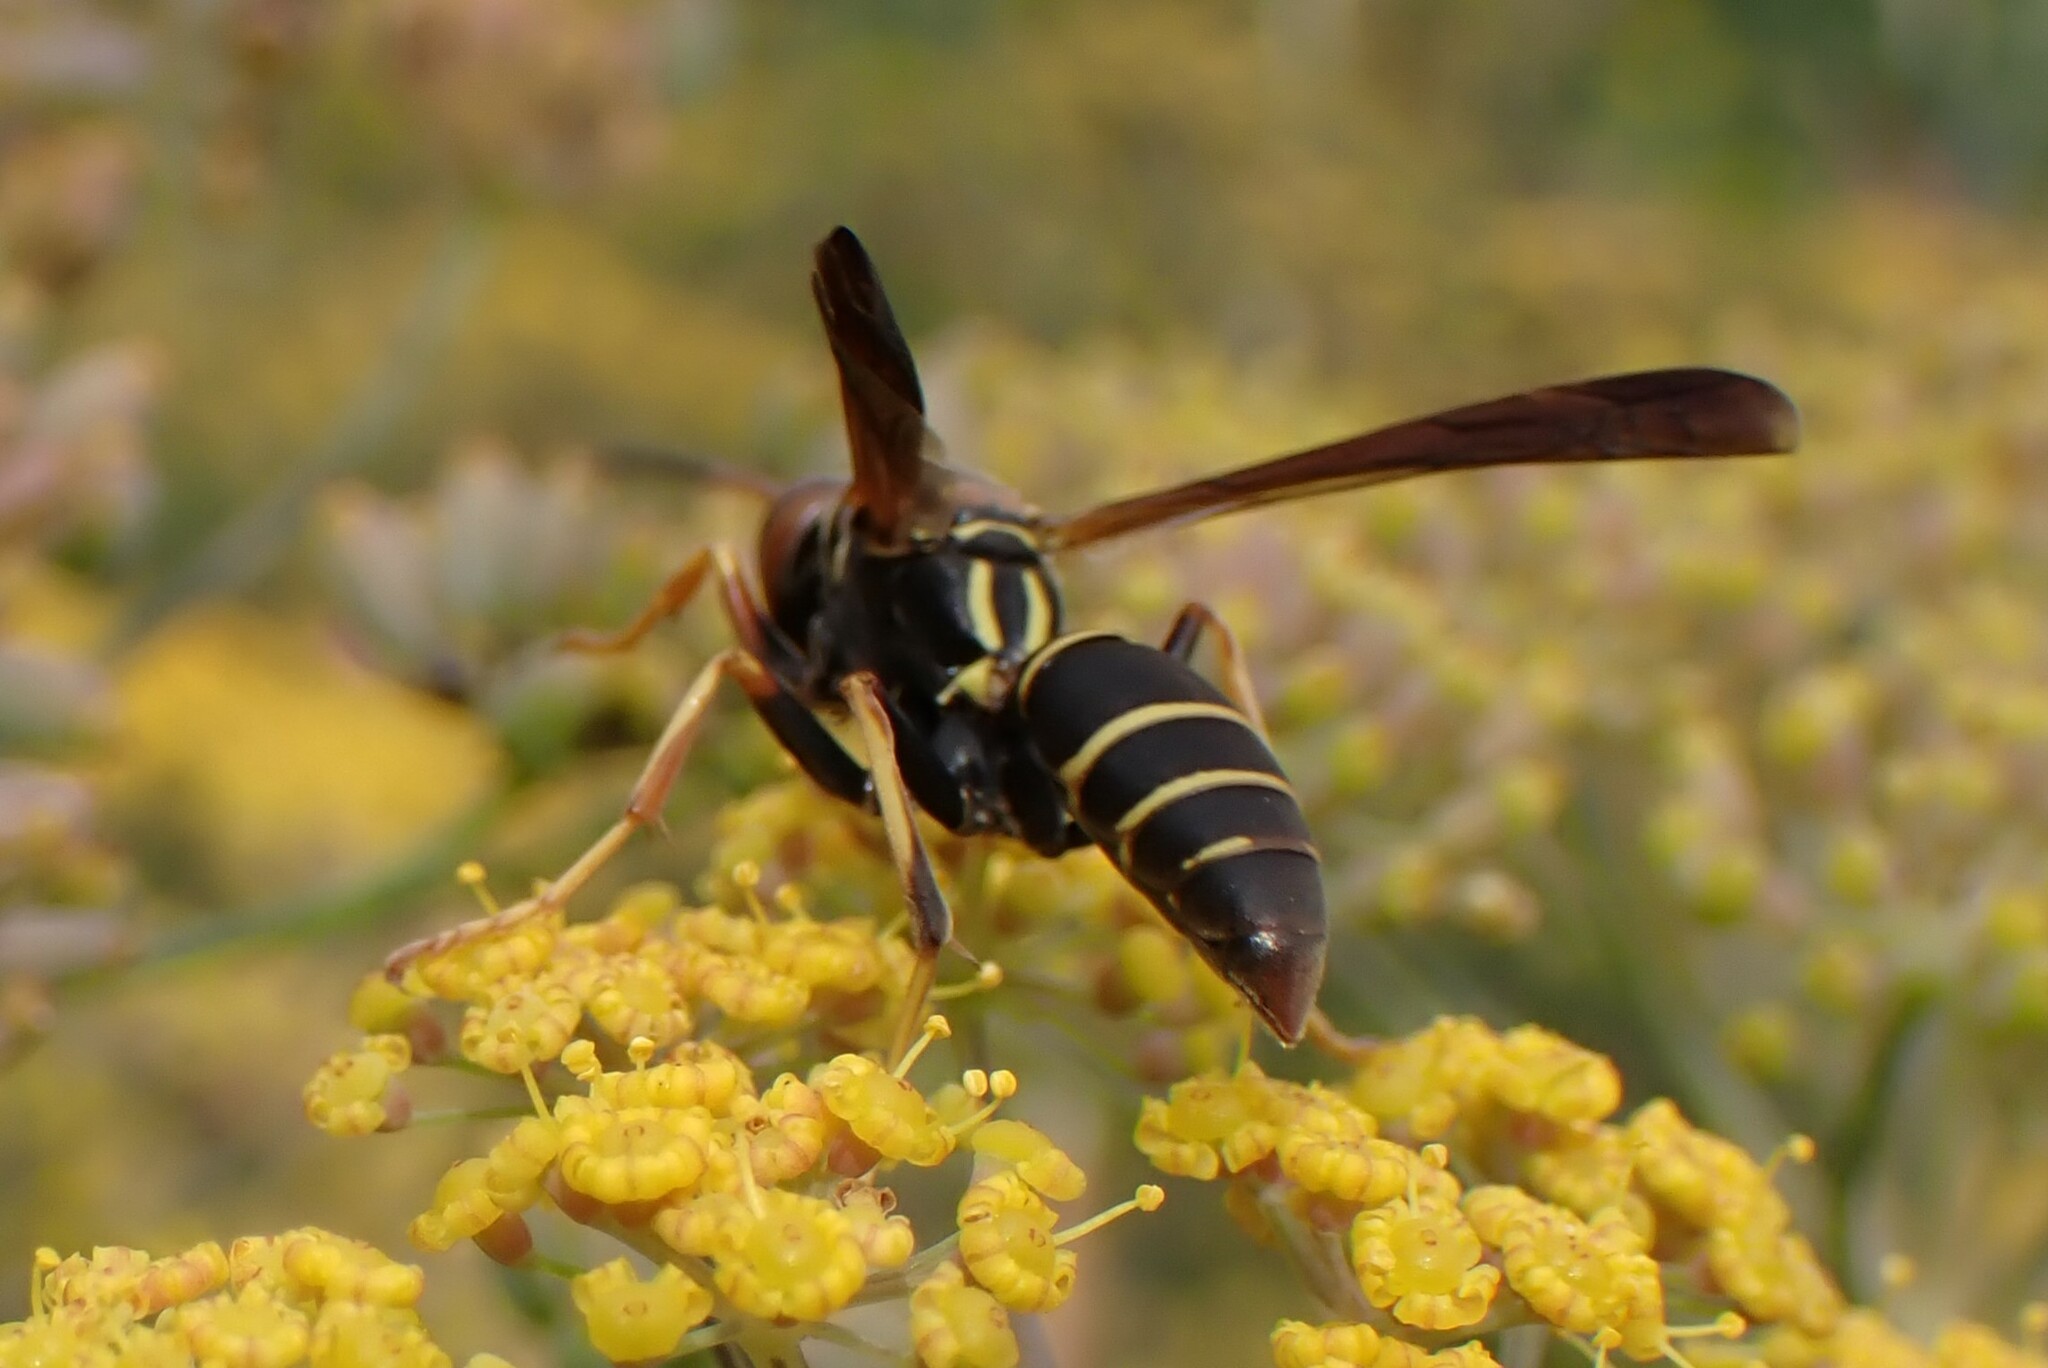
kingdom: Animalia
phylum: Arthropoda
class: Insecta
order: Hymenoptera
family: Eumenidae
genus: Polistes
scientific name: Polistes fuscatus
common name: Dark paper wasp
